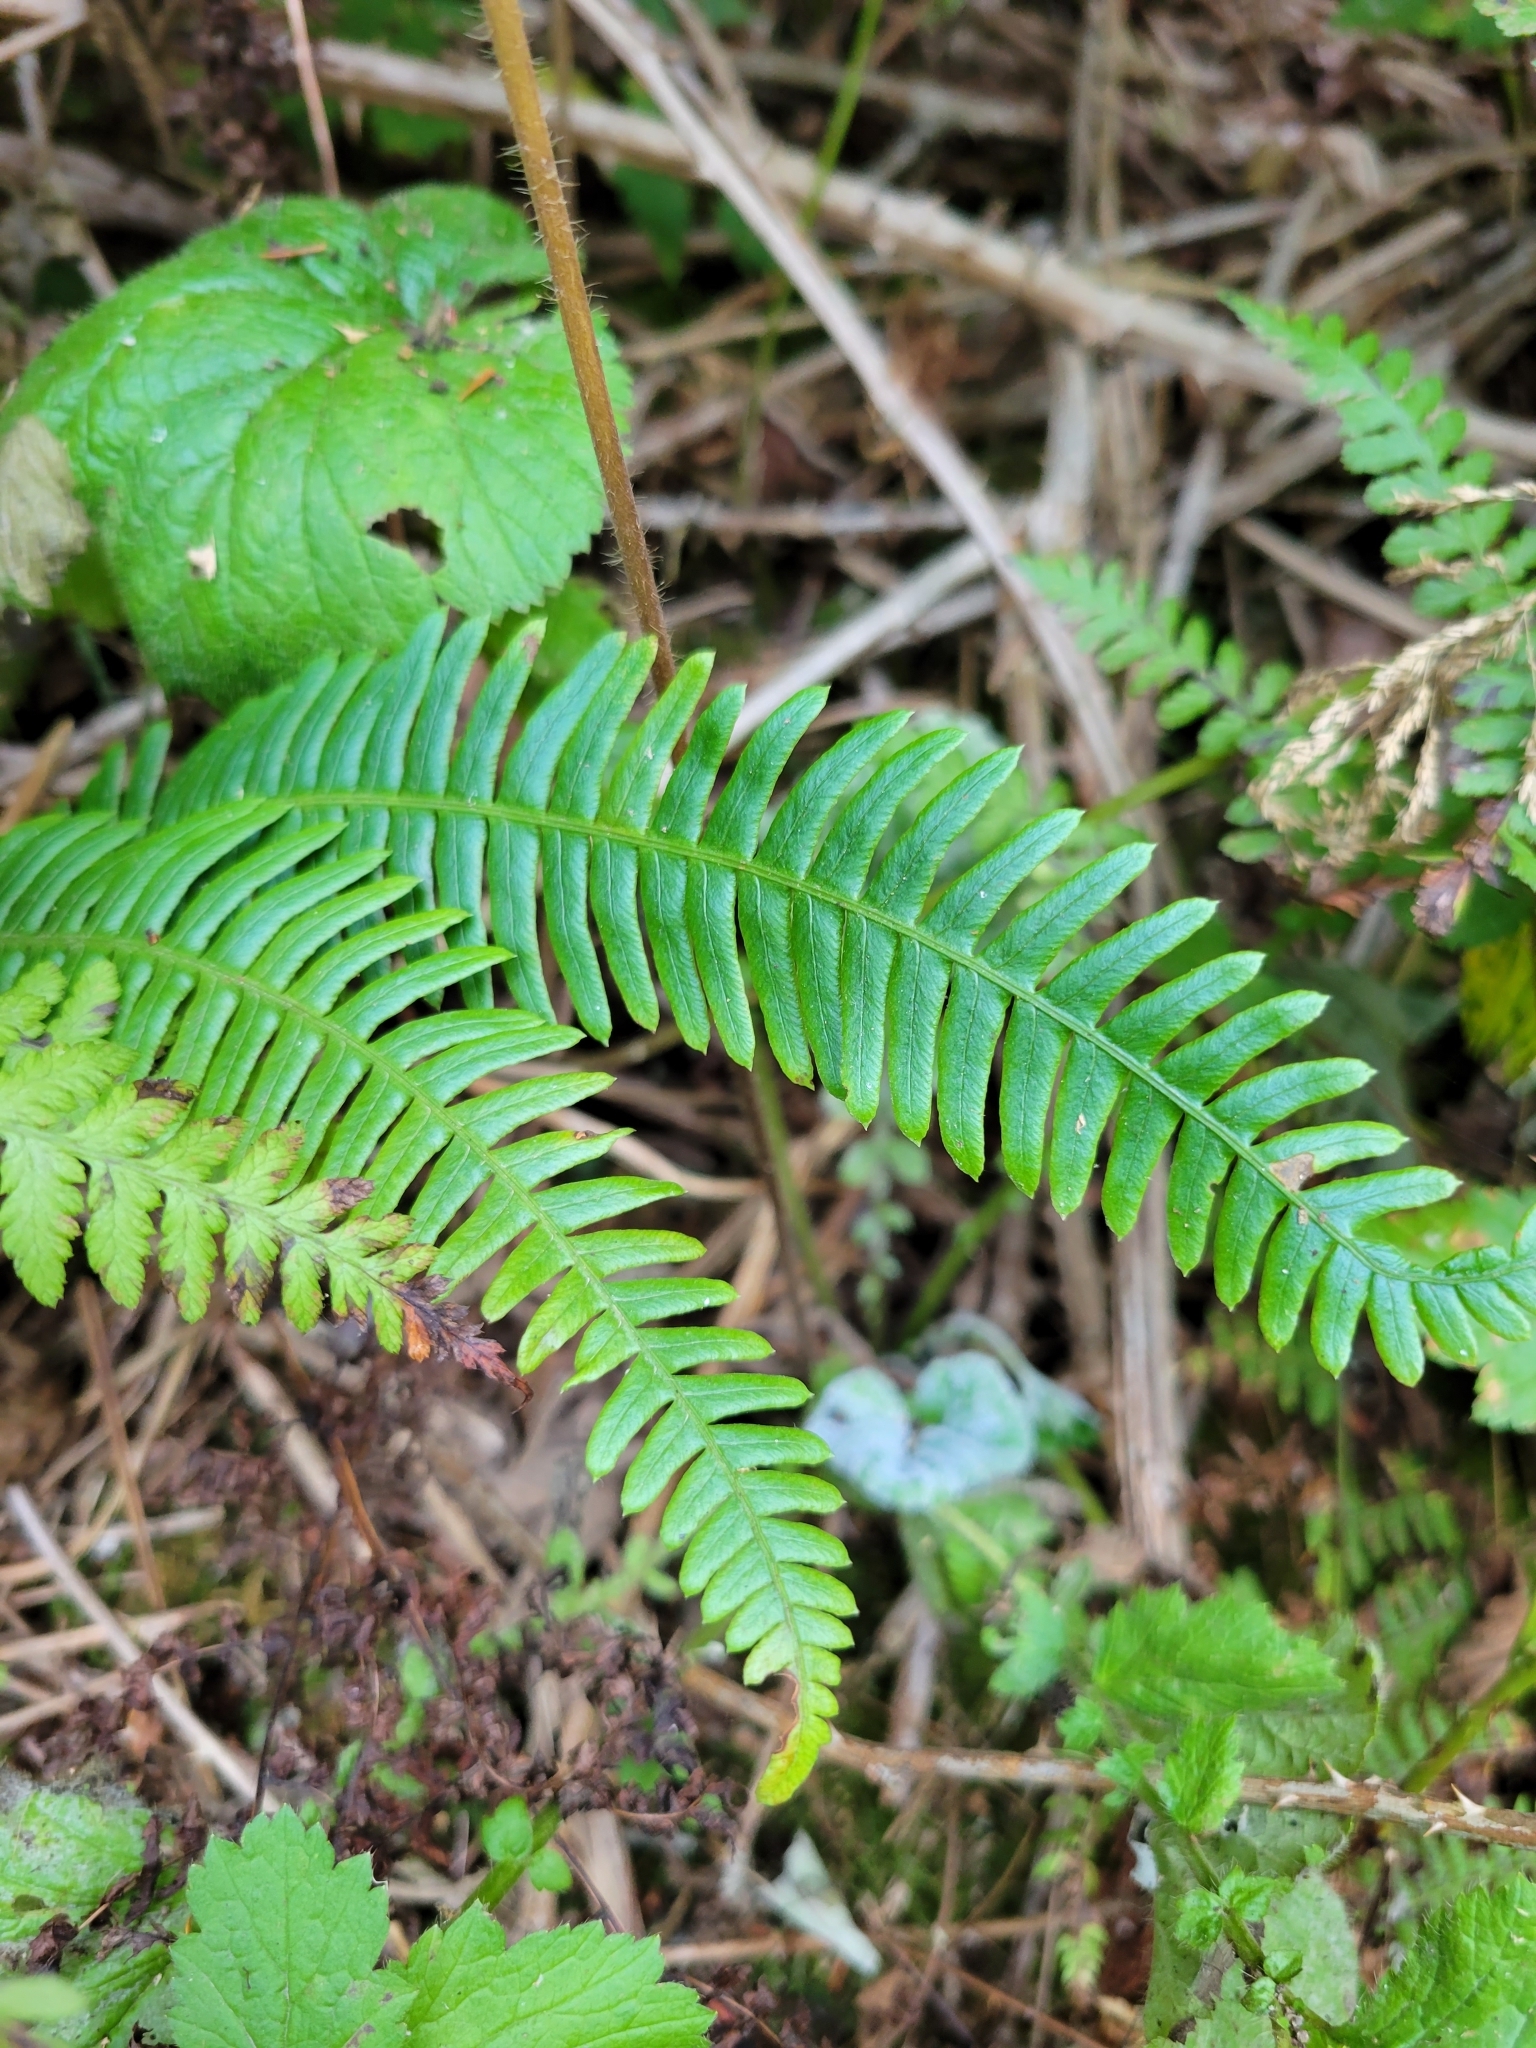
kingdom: Plantae
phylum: Tracheophyta
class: Polypodiopsida
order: Polypodiales
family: Blechnaceae
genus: Struthiopteris
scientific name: Struthiopteris spicant
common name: Deer fern
